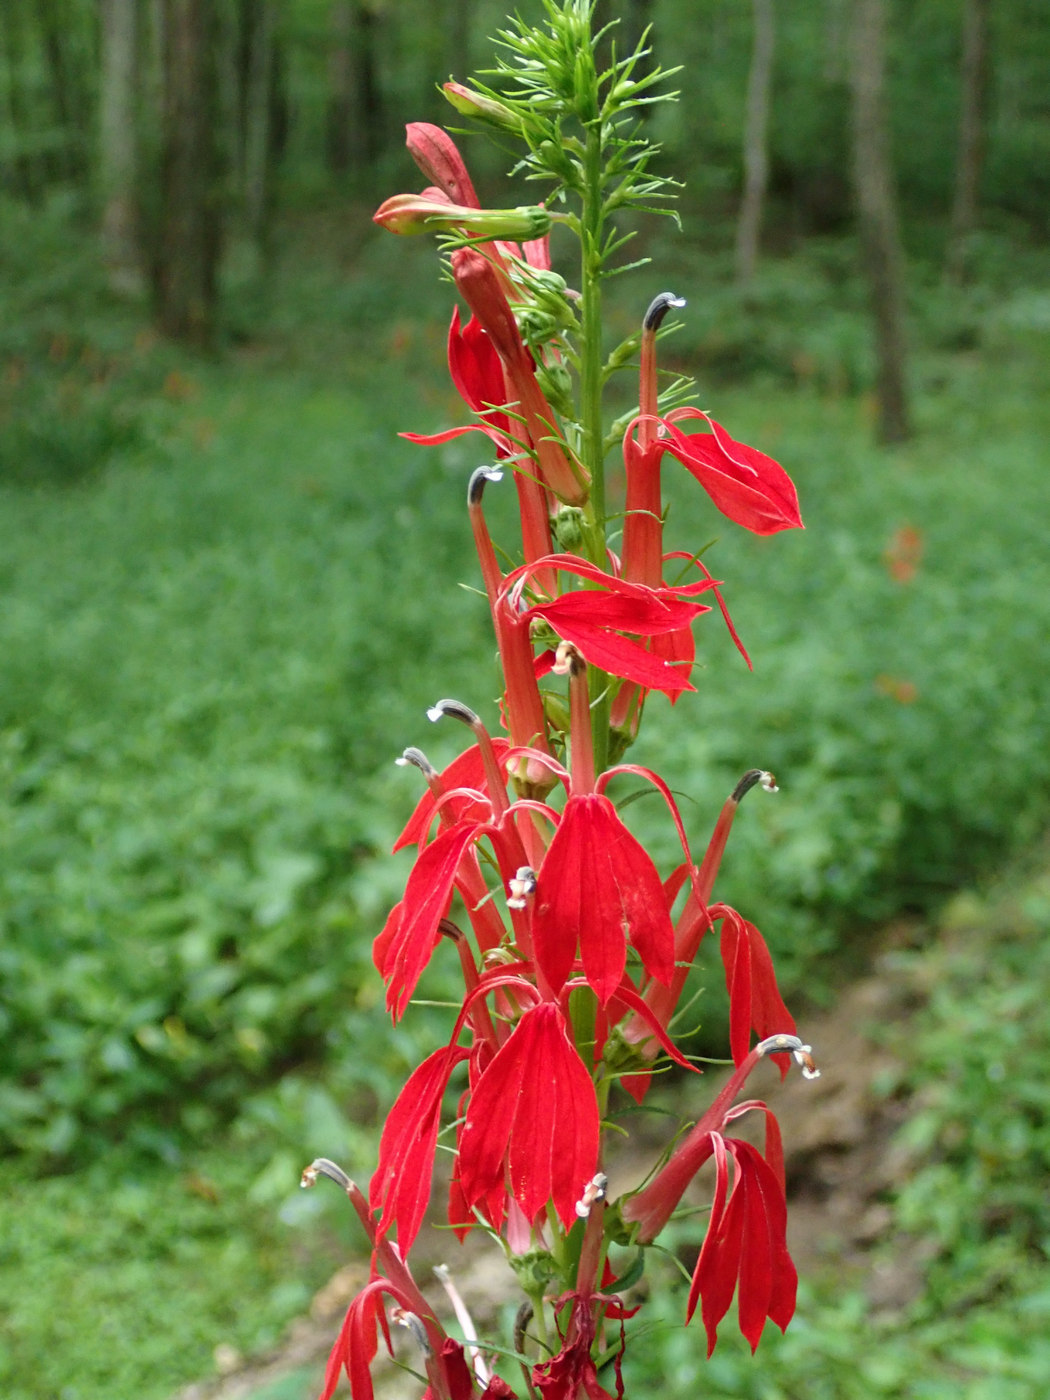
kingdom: Plantae
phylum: Tracheophyta
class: Magnoliopsida
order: Asterales
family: Campanulaceae
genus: Lobelia
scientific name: Lobelia cardinalis
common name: Cardinal flower
